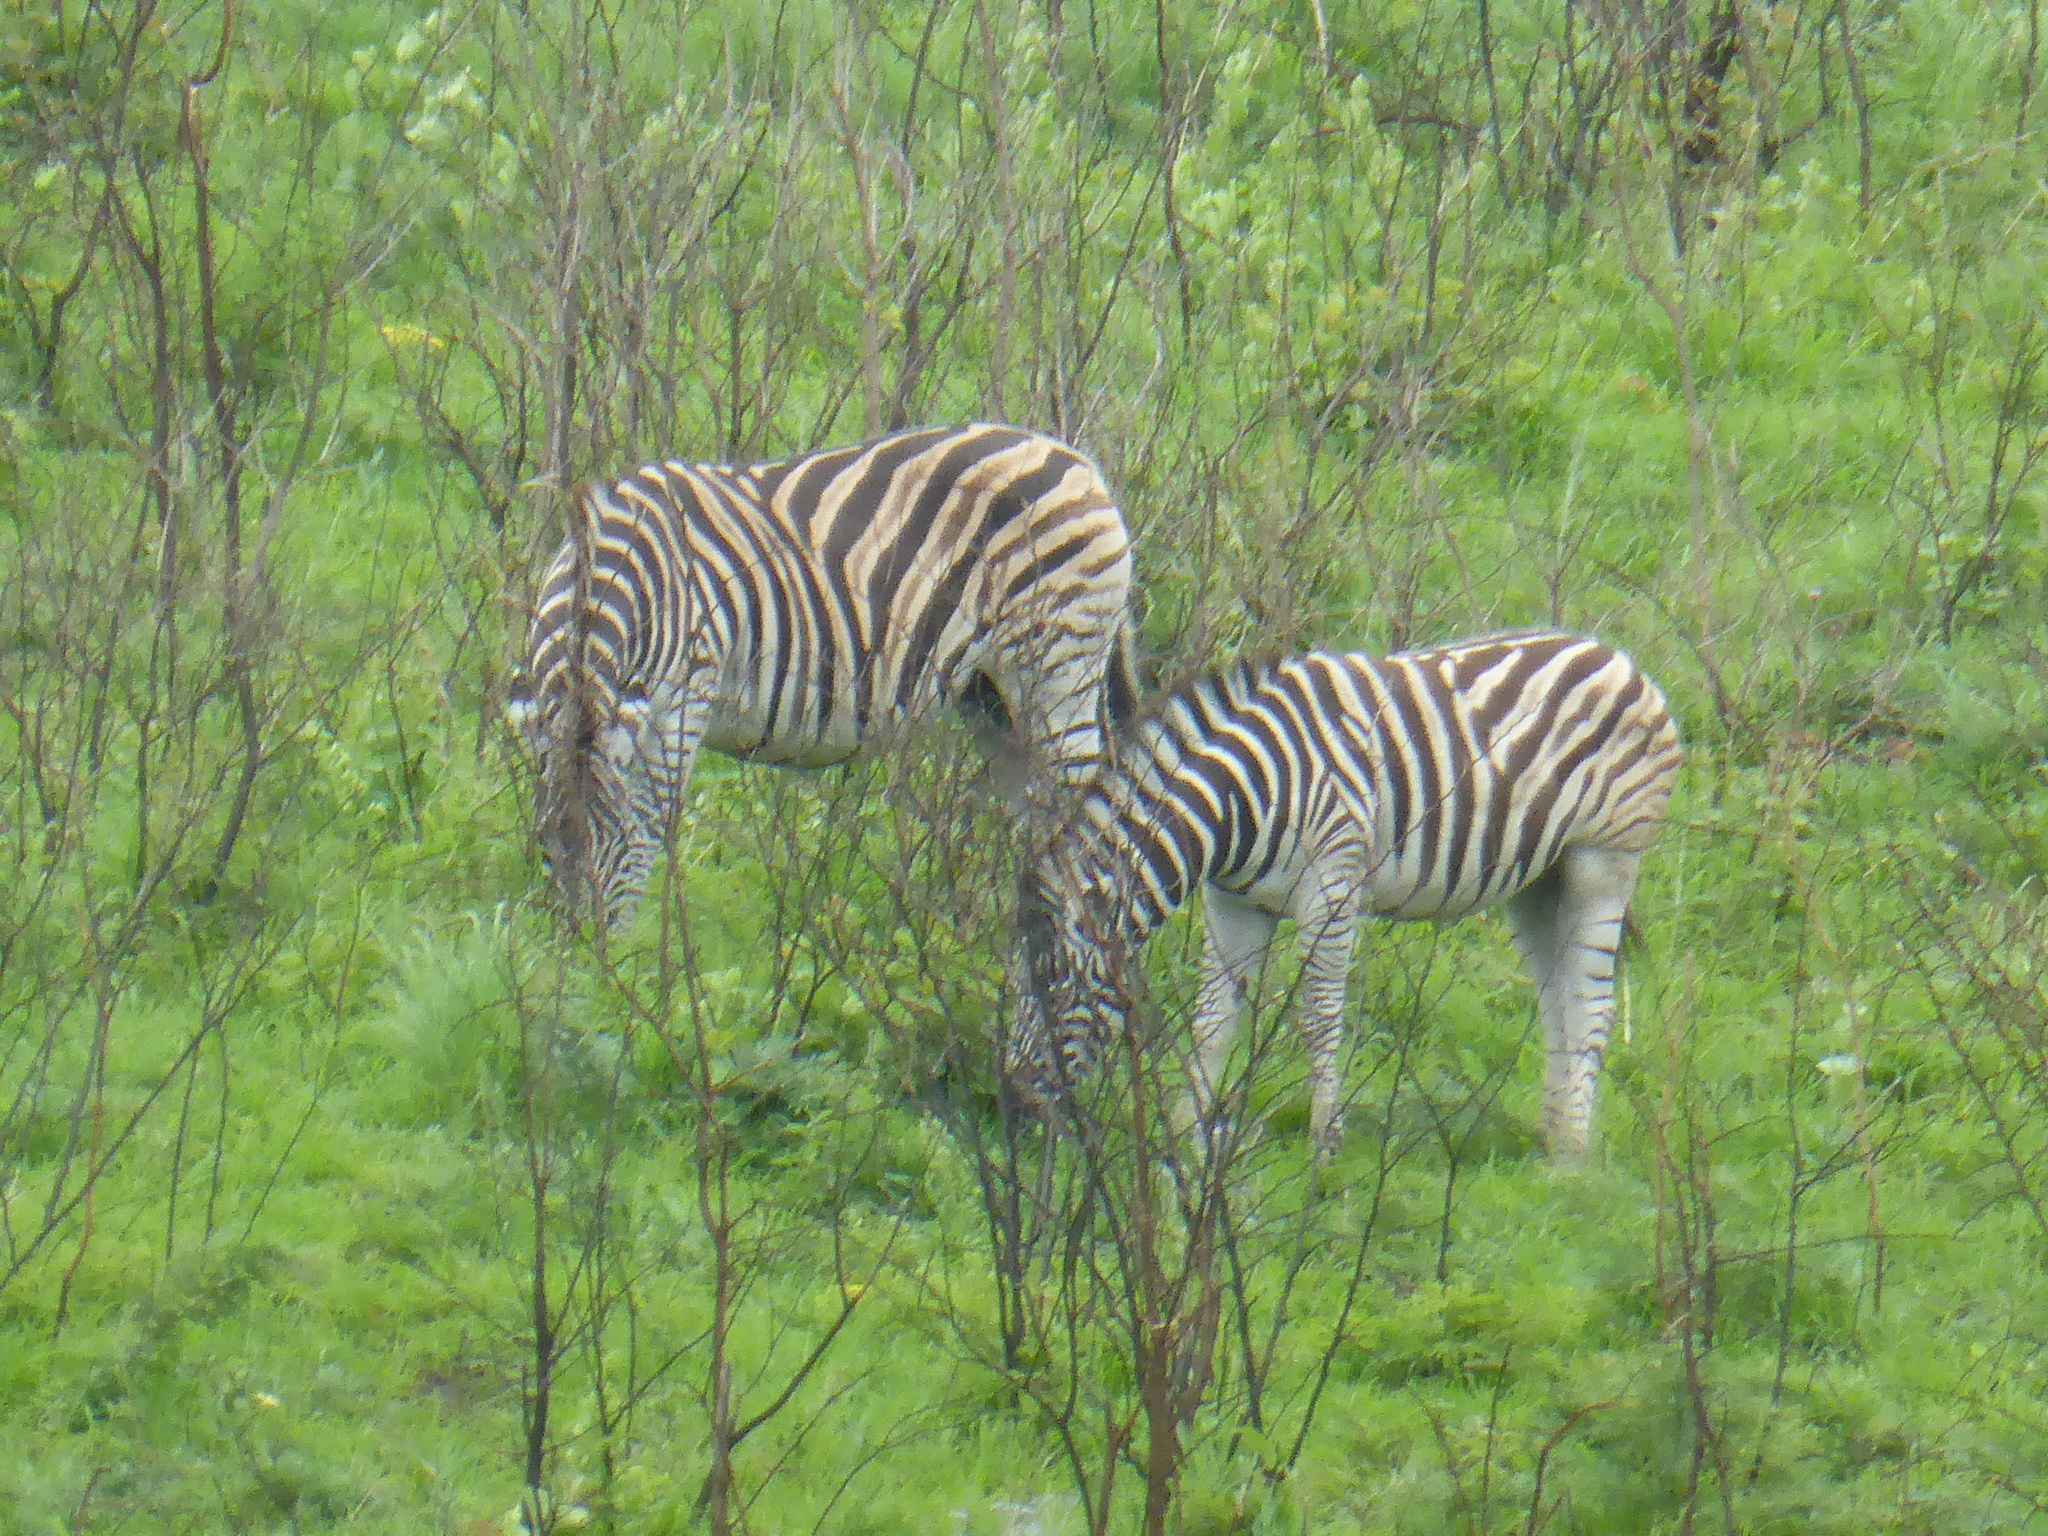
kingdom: Animalia
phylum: Chordata
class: Mammalia
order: Perissodactyla
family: Equidae
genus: Equus
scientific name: Equus quagga
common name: Plains zebra
